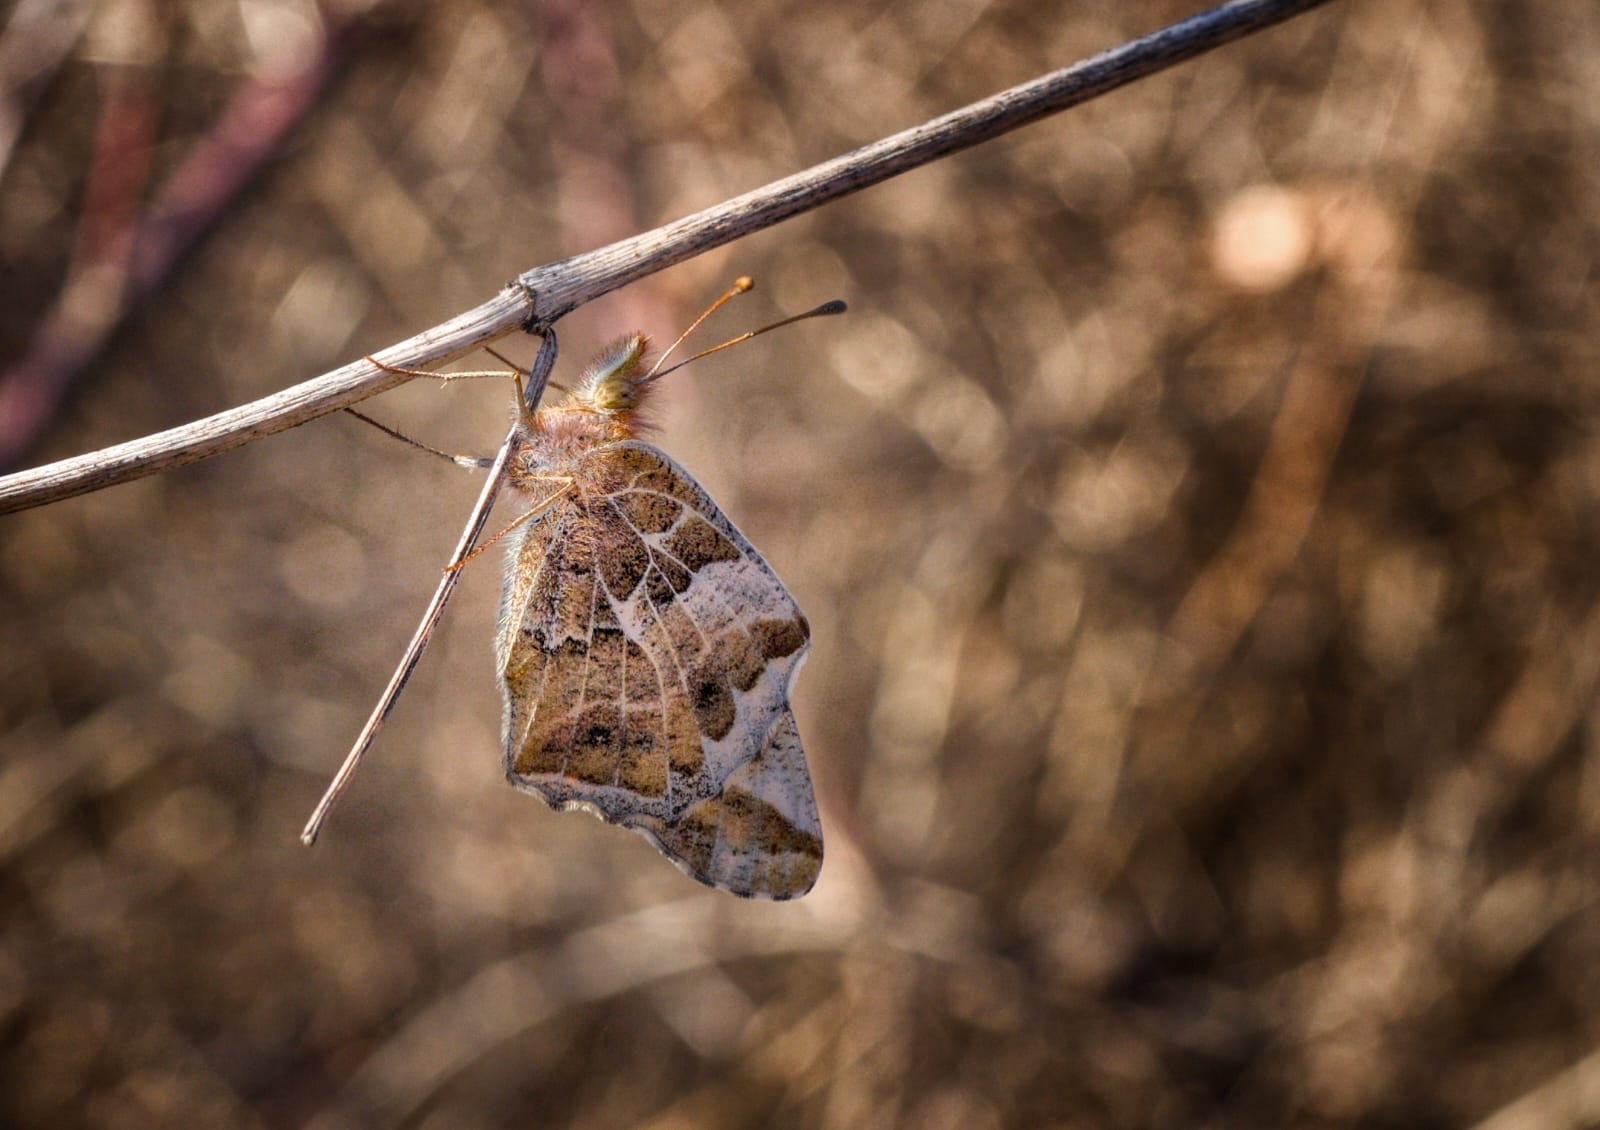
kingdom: Animalia
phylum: Arthropoda
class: Insecta
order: Lepidoptera
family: Nymphalidae
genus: Euptoieta
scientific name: Euptoieta claudia
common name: Variegated fritillary
